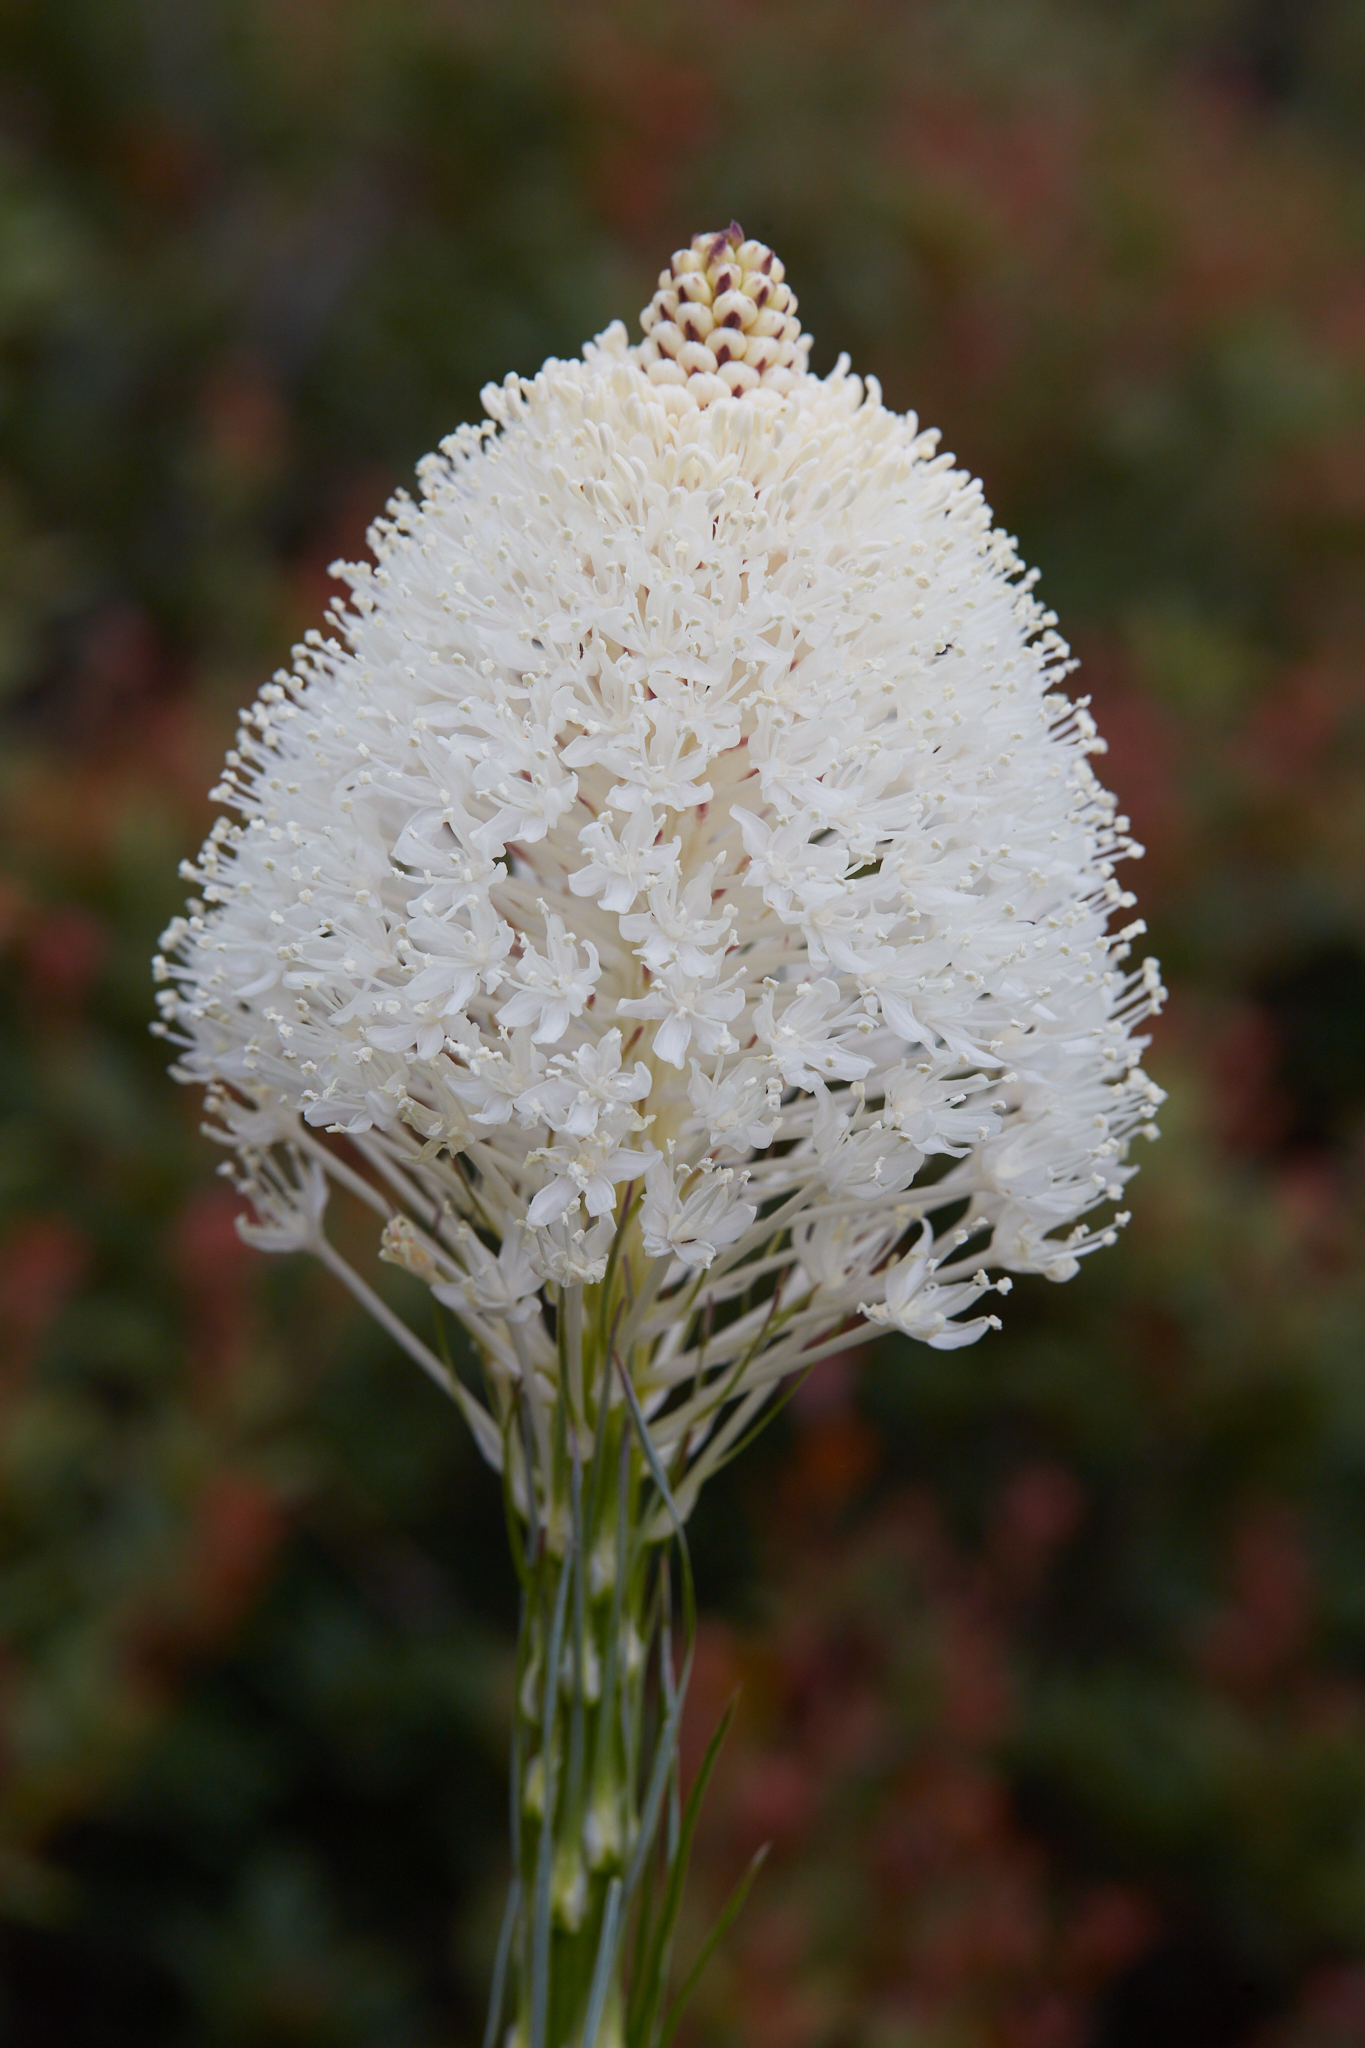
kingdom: Plantae
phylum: Tracheophyta
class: Liliopsida
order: Liliales
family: Melanthiaceae
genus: Xerophyllum
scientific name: Xerophyllum tenax
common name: Bear-grass
